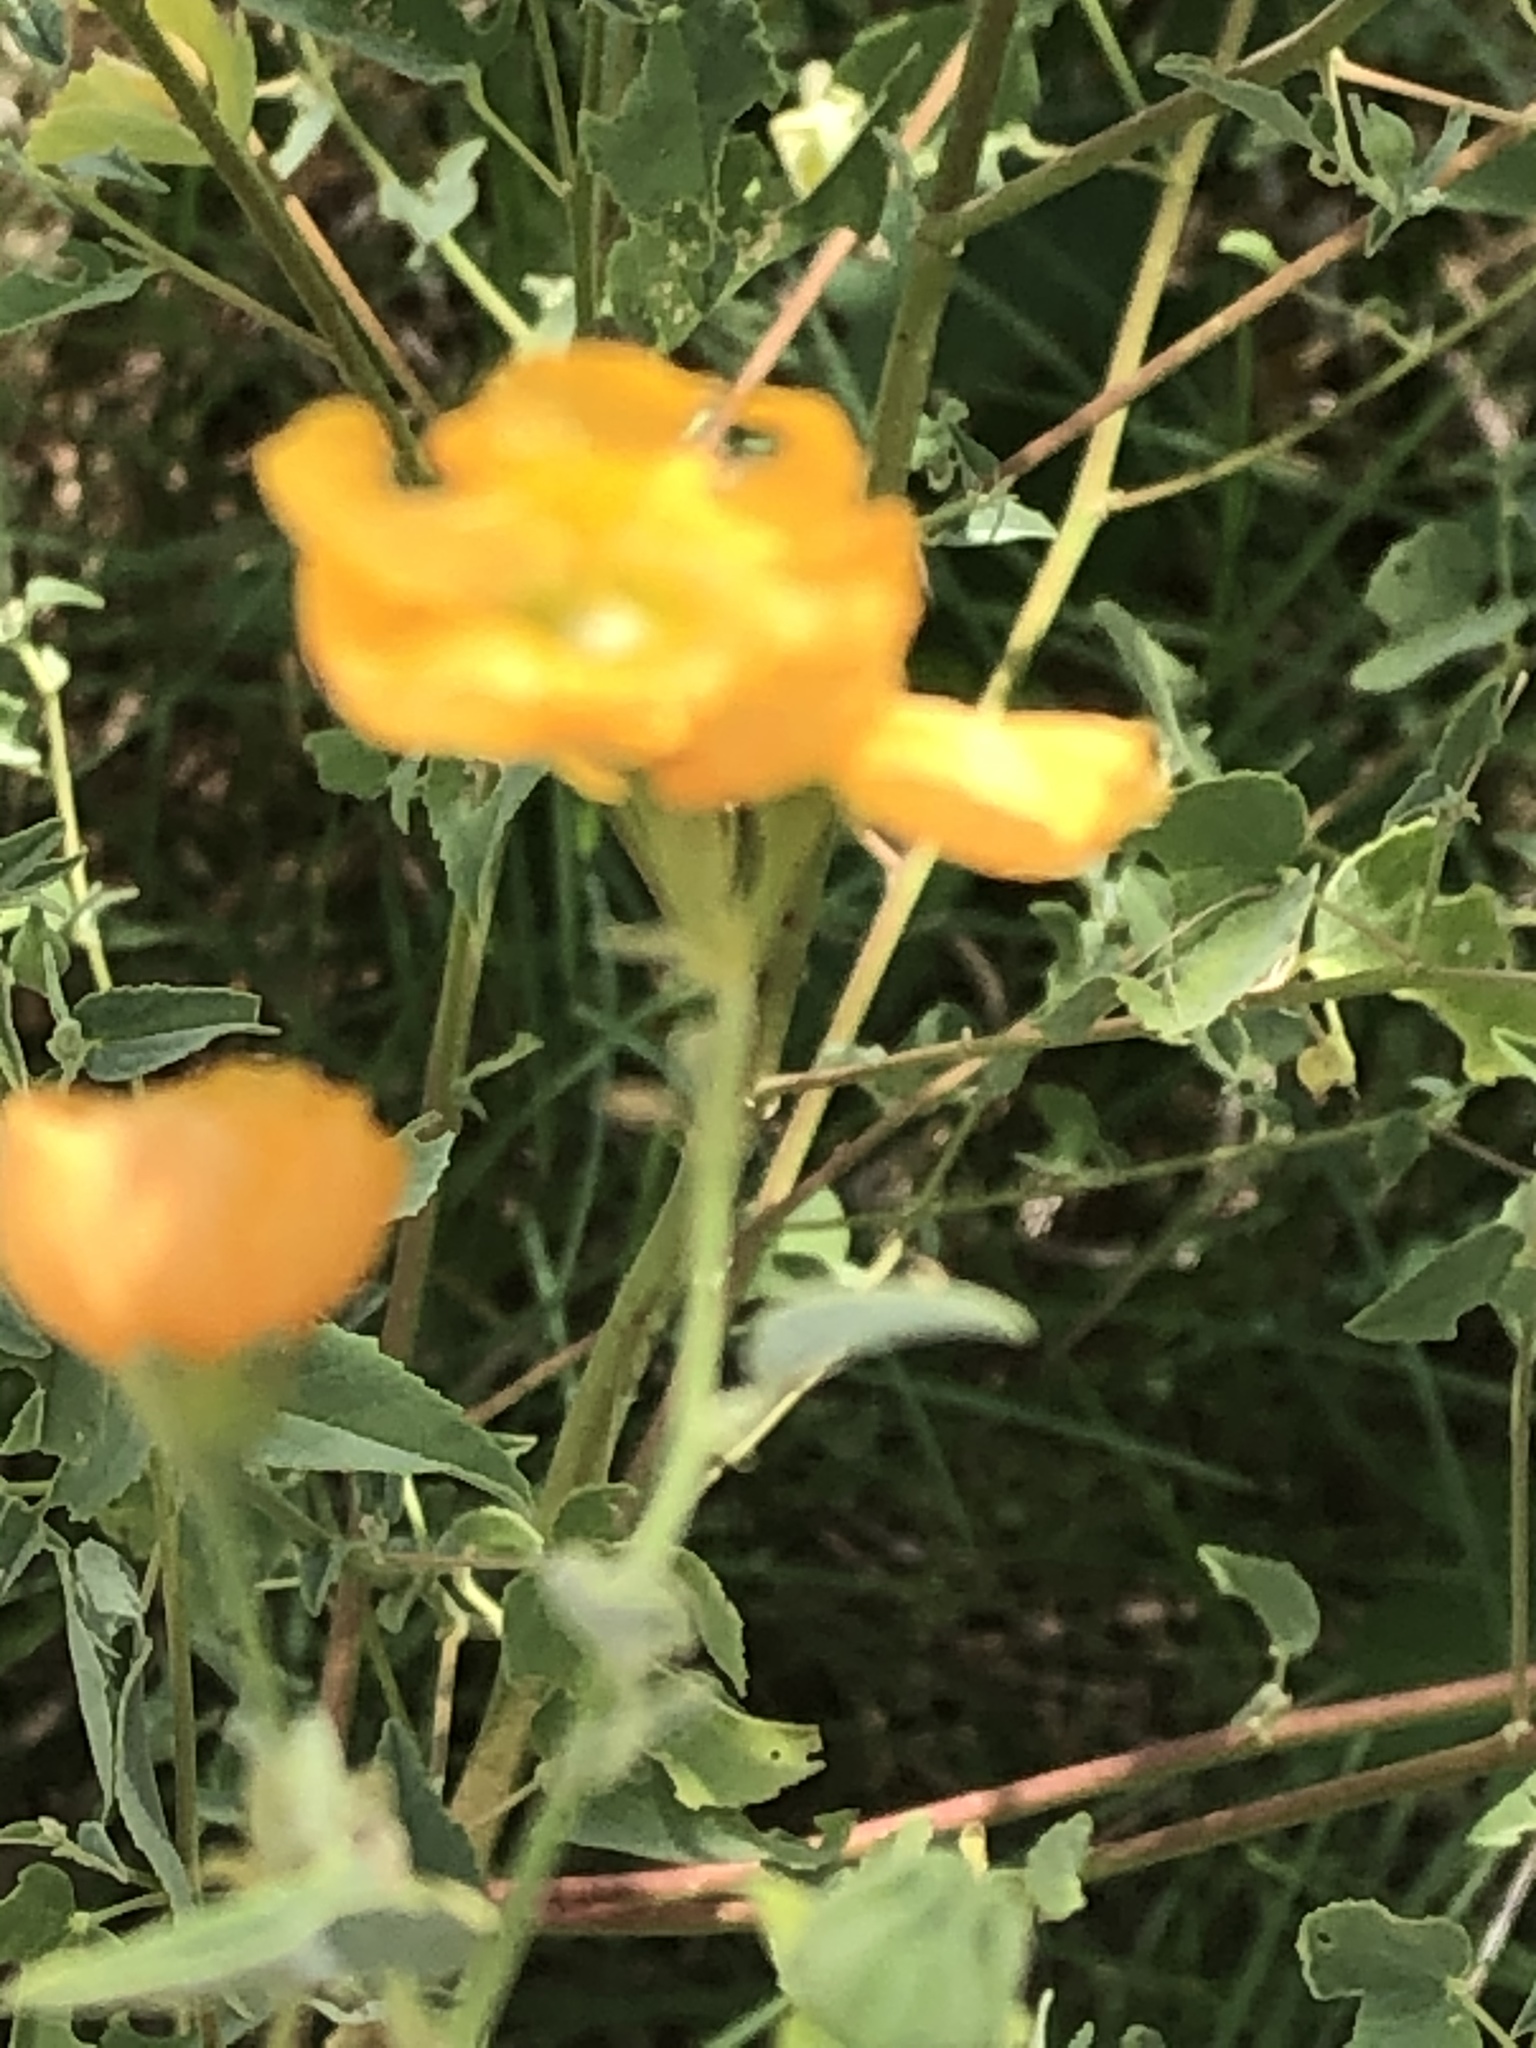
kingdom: Plantae
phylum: Tracheophyta
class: Magnoliopsida
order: Malvales
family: Malvaceae
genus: Abutilon
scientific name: Abutilon fruticosum
